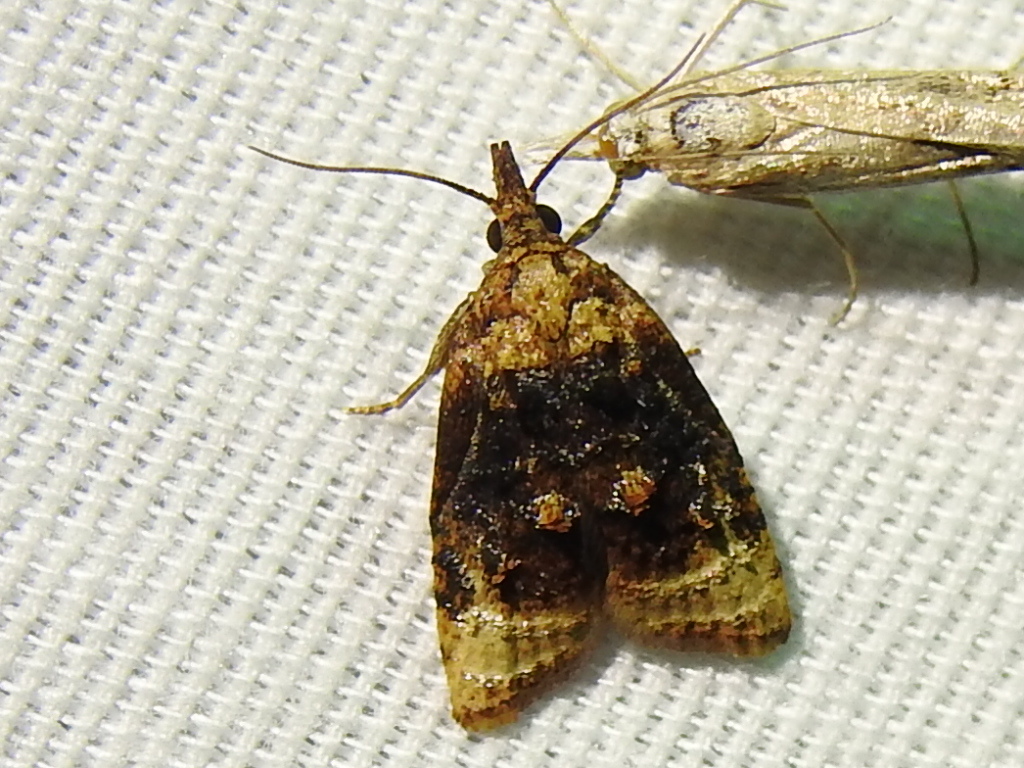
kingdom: Animalia
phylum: Arthropoda
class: Insecta
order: Lepidoptera
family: Tortricidae
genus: Platynota
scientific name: Platynota flavedana
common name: Black-shaded platynota moth
